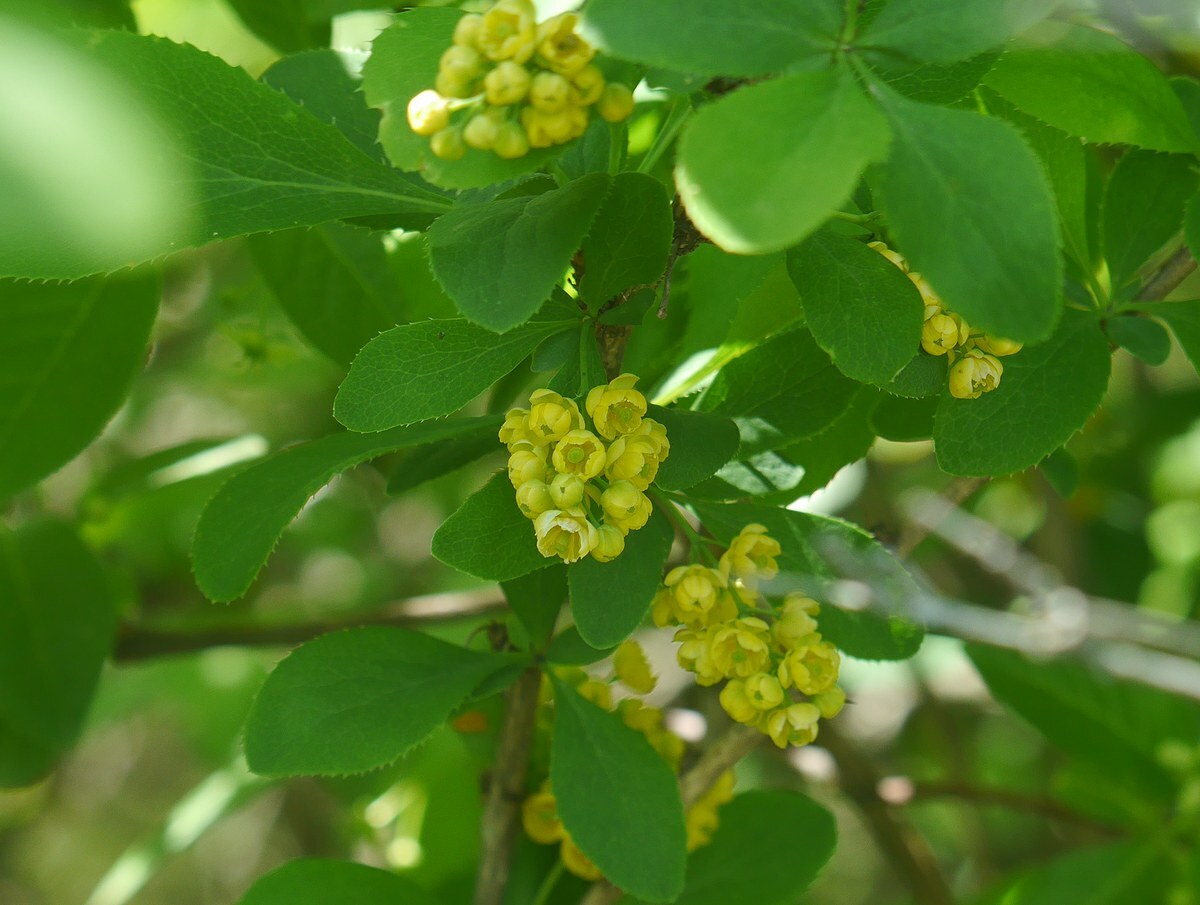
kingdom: Plantae
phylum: Tracheophyta
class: Magnoliopsida
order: Ranunculales
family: Berberidaceae
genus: Berberis
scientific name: Berberis vulgaris
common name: Barberry
